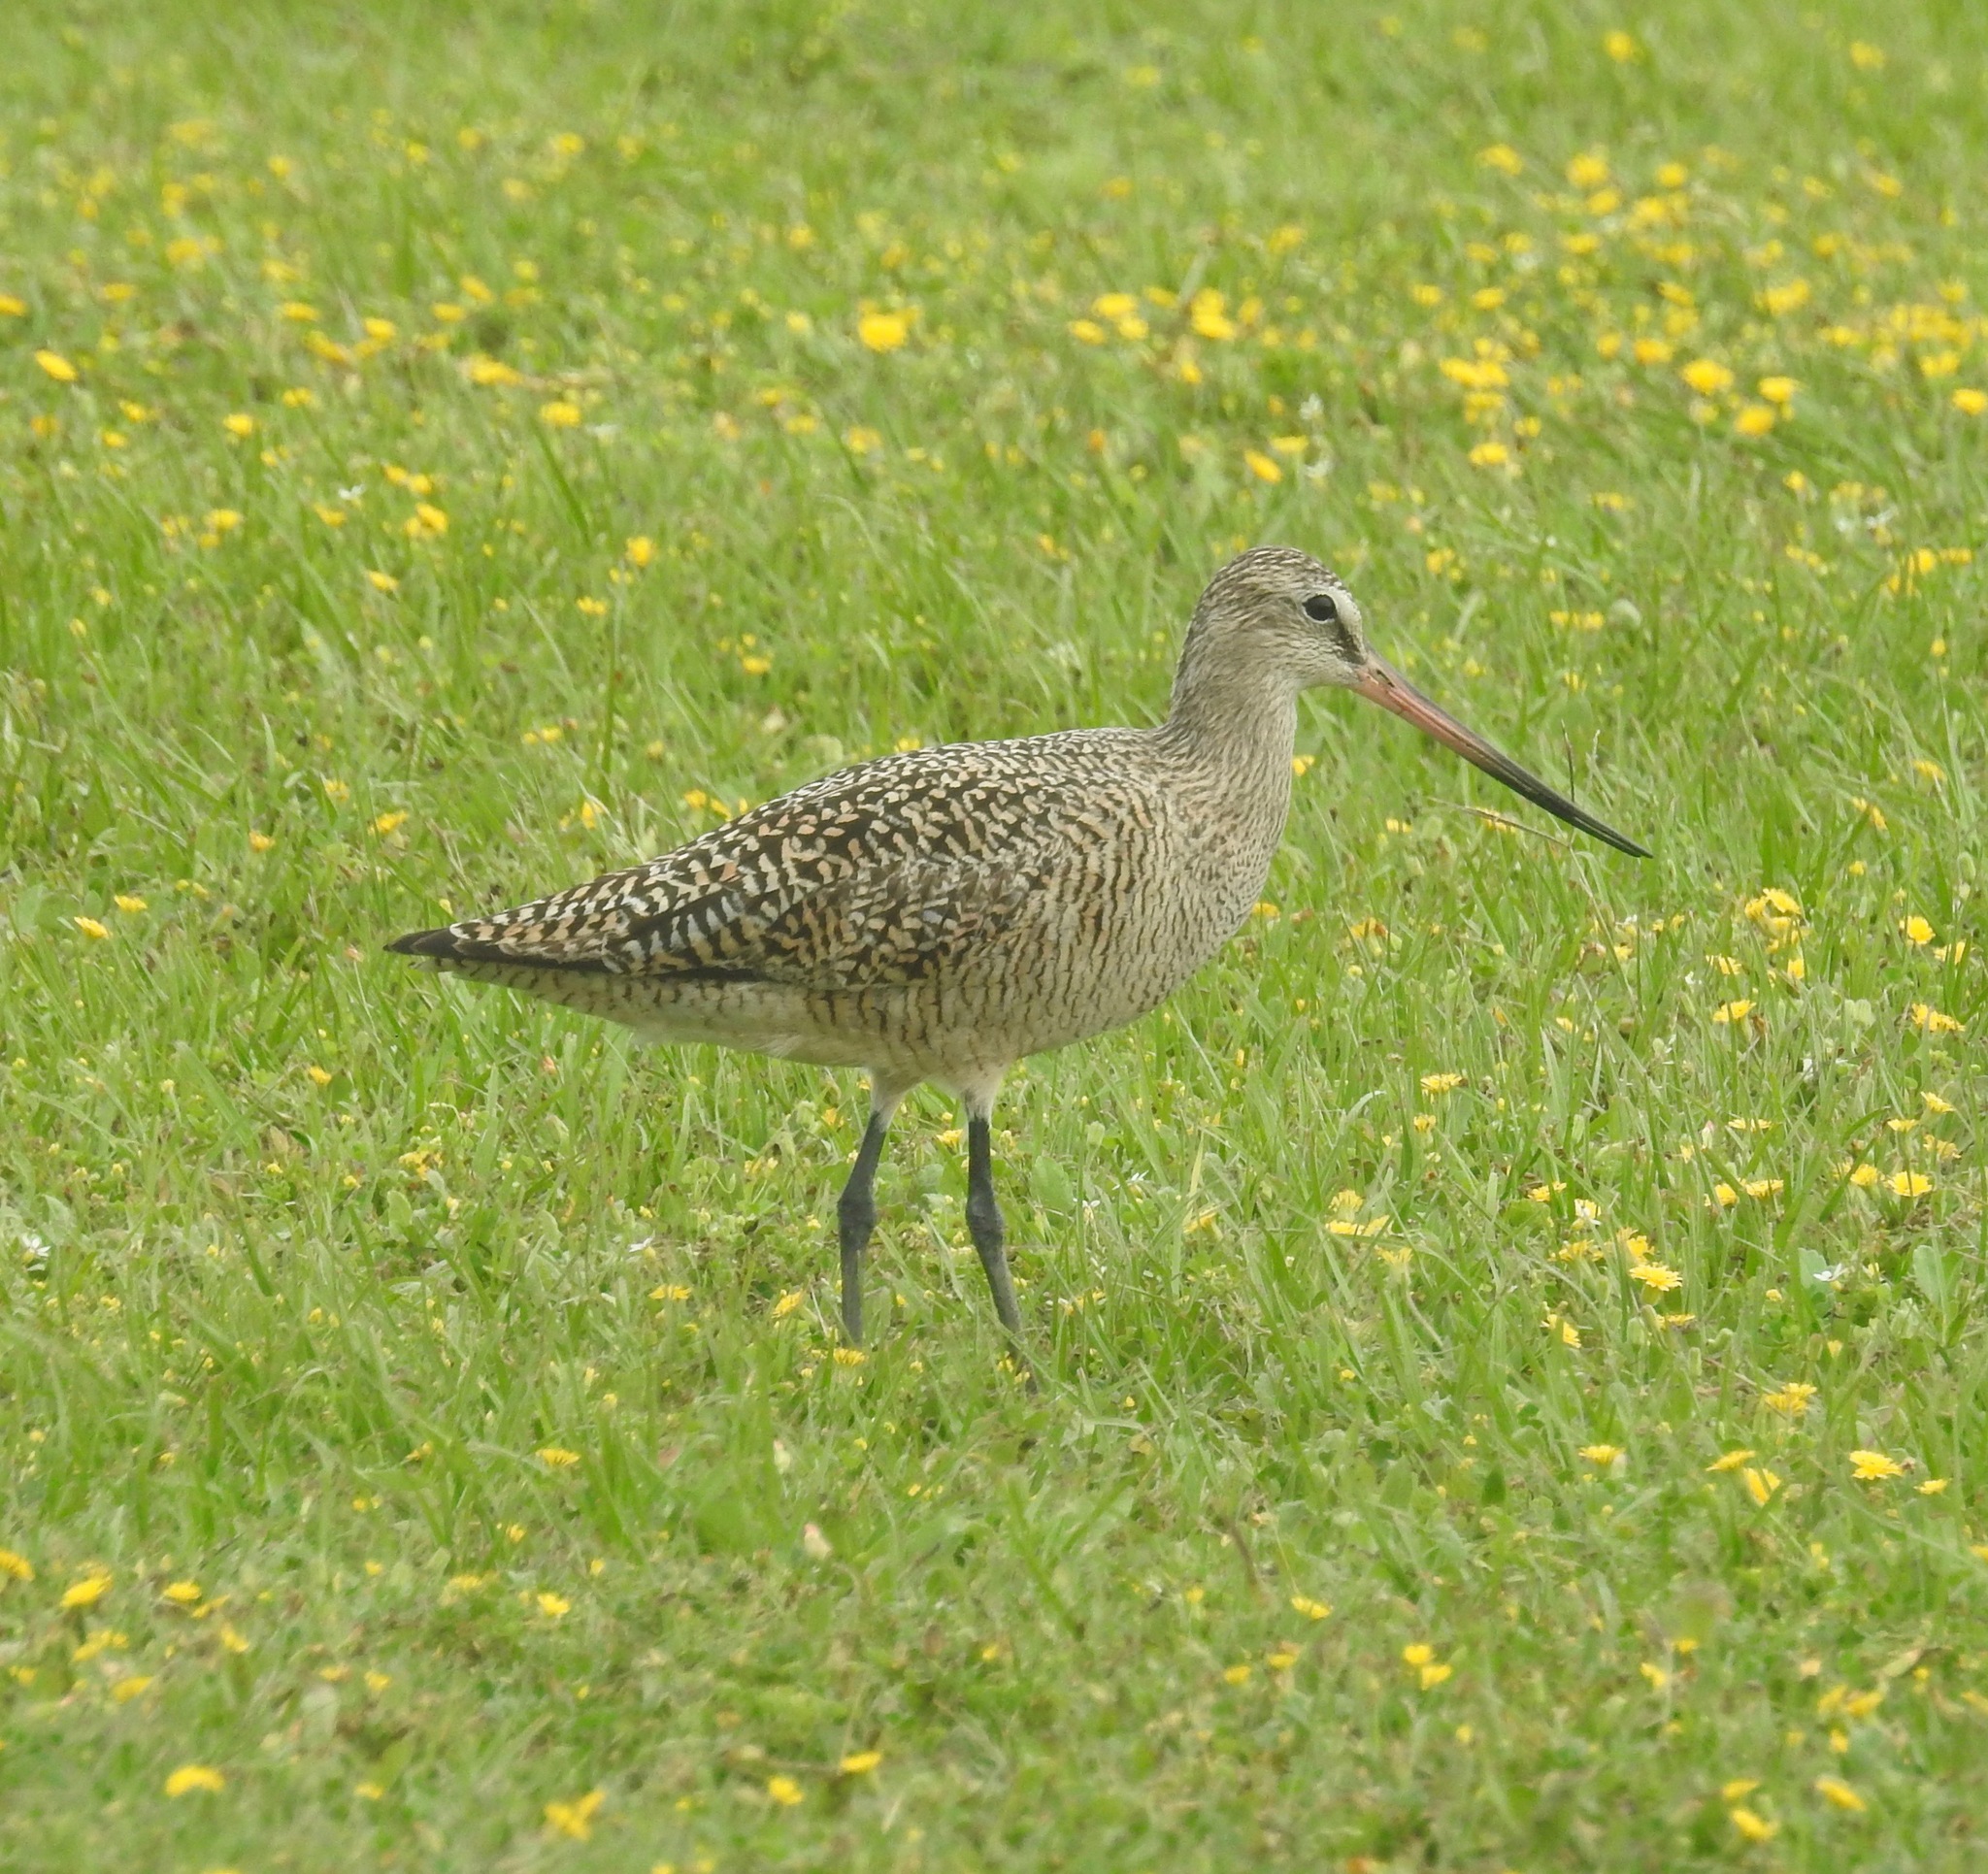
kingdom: Animalia
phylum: Chordata
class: Aves
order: Charadriiformes
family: Scolopacidae
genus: Limosa
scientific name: Limosa fedoa
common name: Marbled godwit
